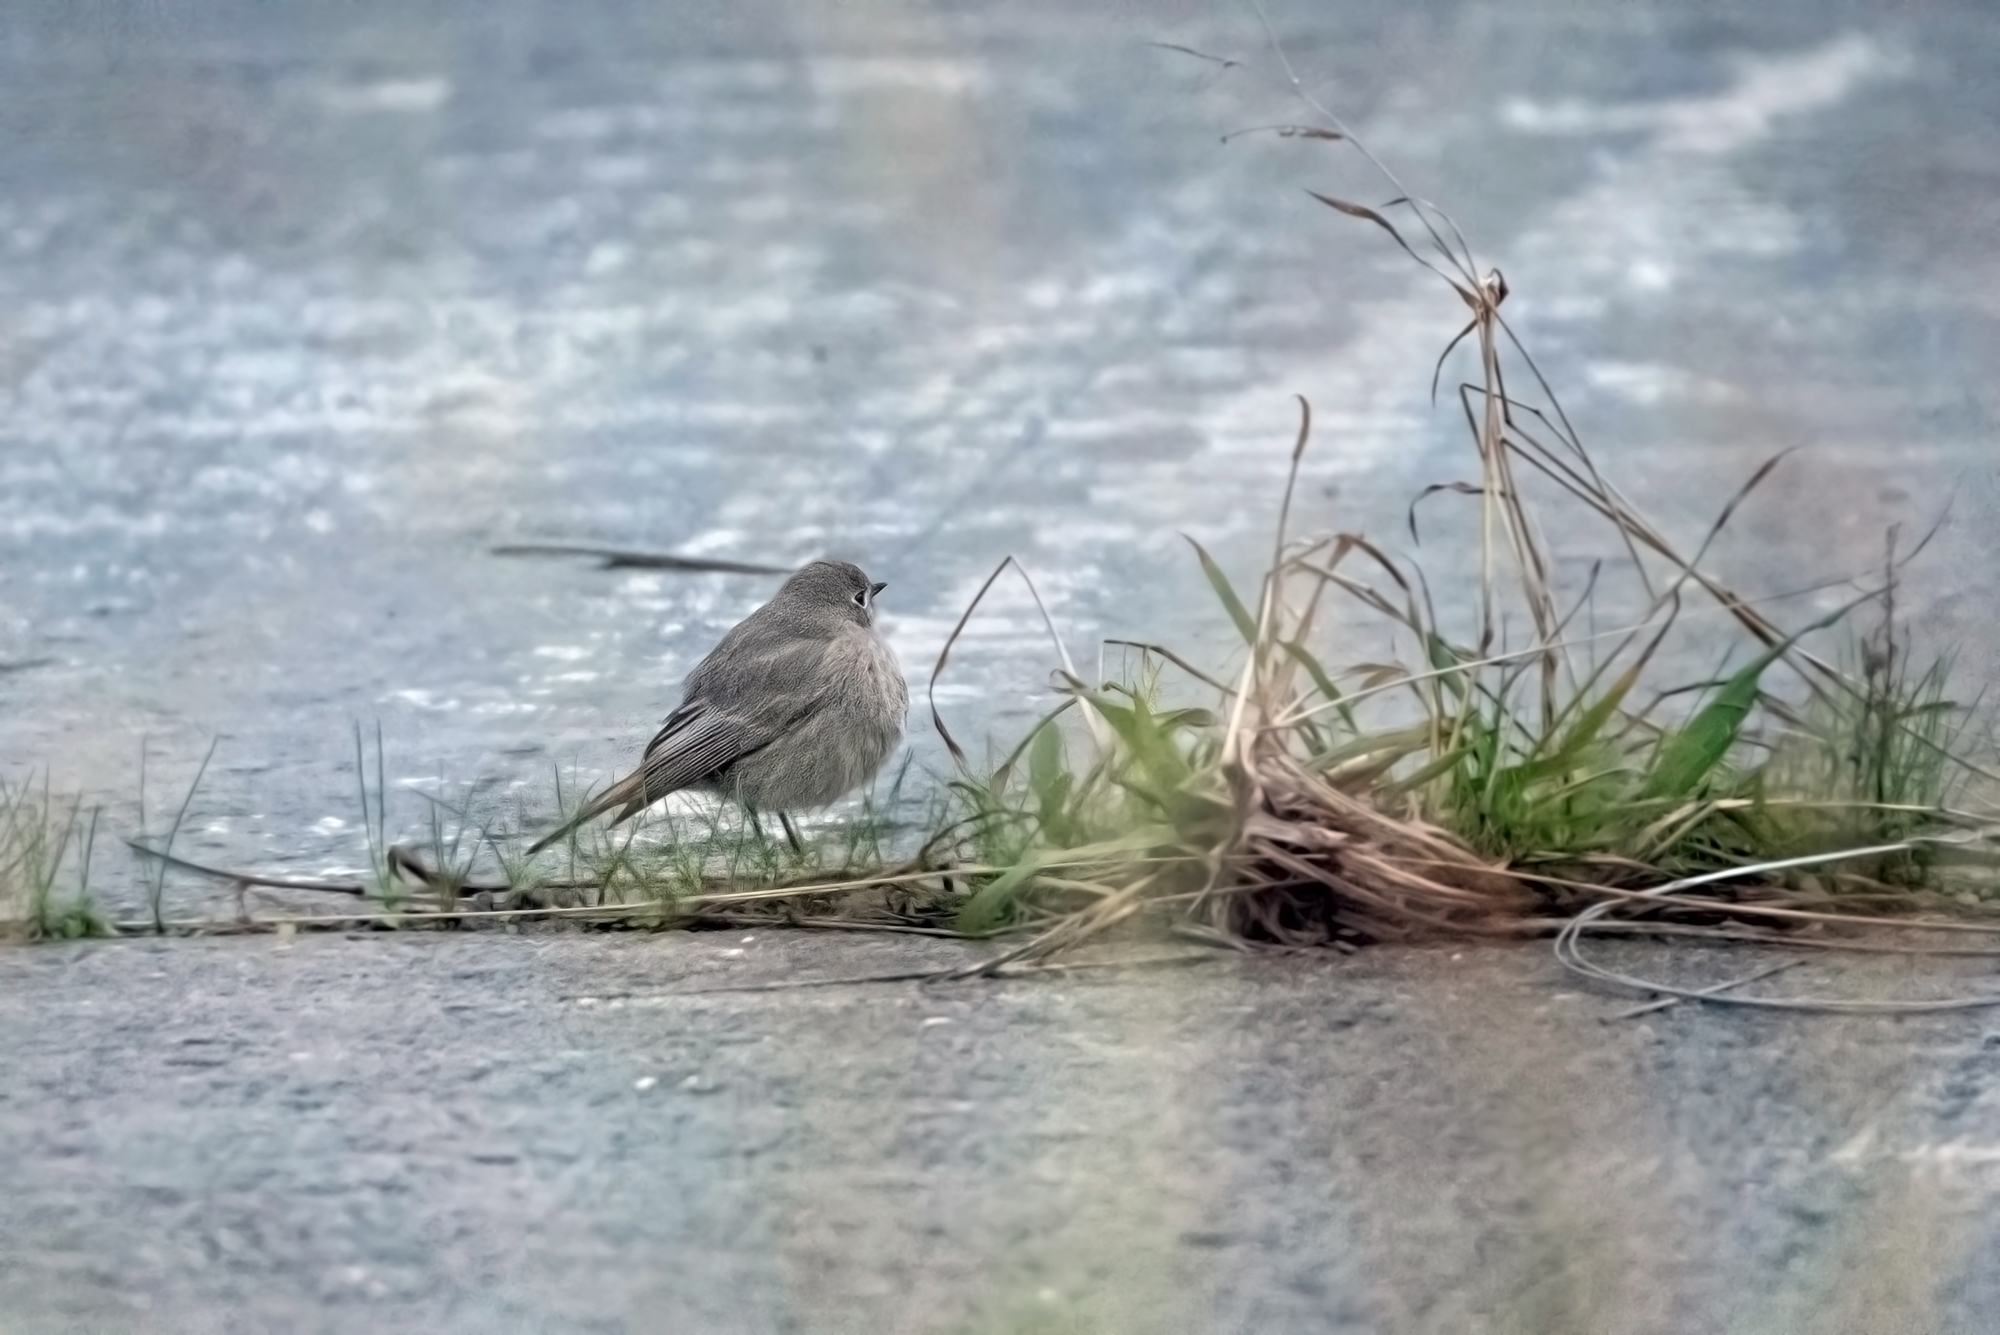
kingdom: Animalia
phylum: Chordata
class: Aves
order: Passeriformes
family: Muscicapidae
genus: Phoenicurus
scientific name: Phoenicurus ochruros
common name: Black redstart
